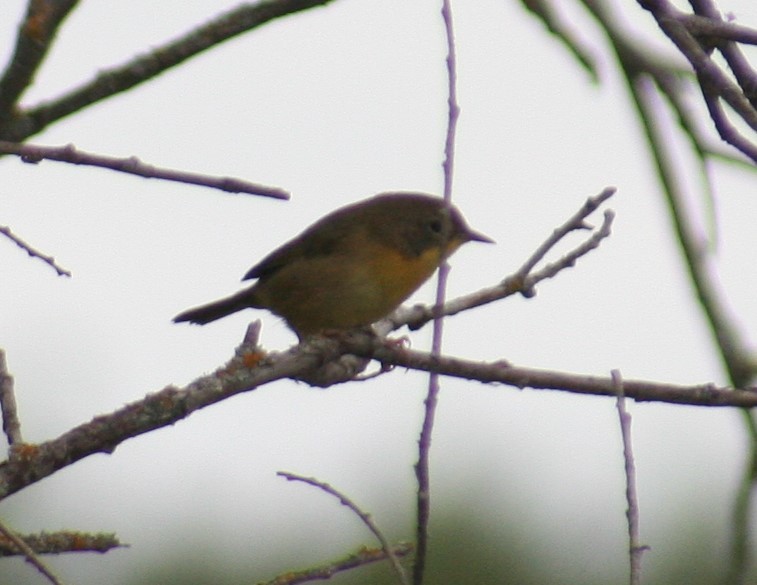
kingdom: Animalia
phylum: Chordata
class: Aves
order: Passeriformes
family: Parulidae
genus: Geothlypis
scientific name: Geothlypis trichas
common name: Common yellowthroat
